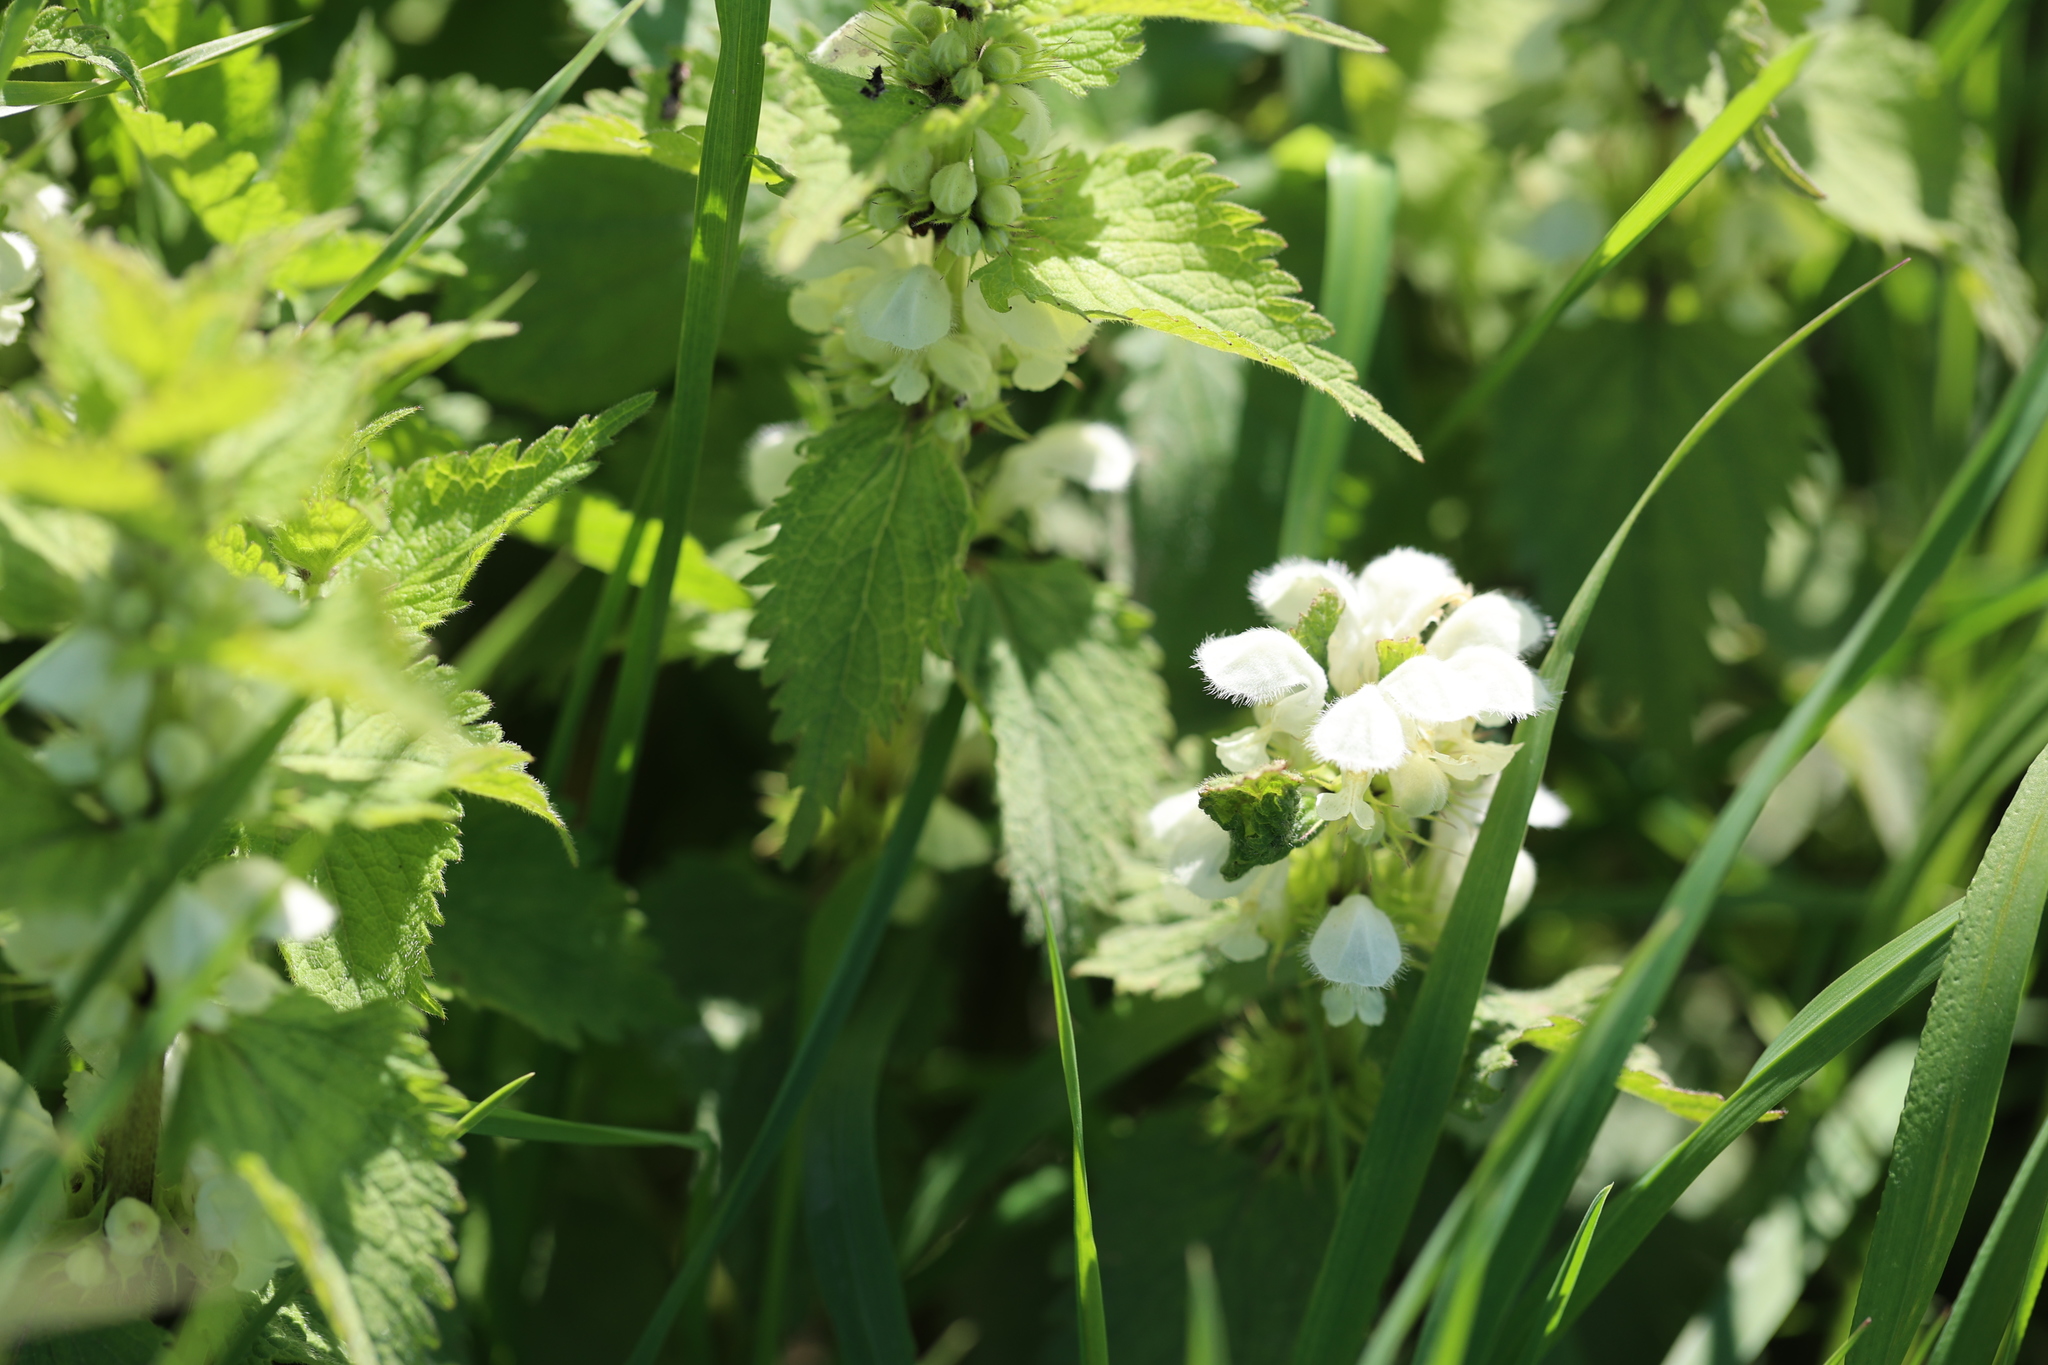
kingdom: Plantae
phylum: Tracheophyta
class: Magnoliopsida
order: Lamiales
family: Lamiaceae
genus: Lamium
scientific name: Lamium album
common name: White dead-nettle
